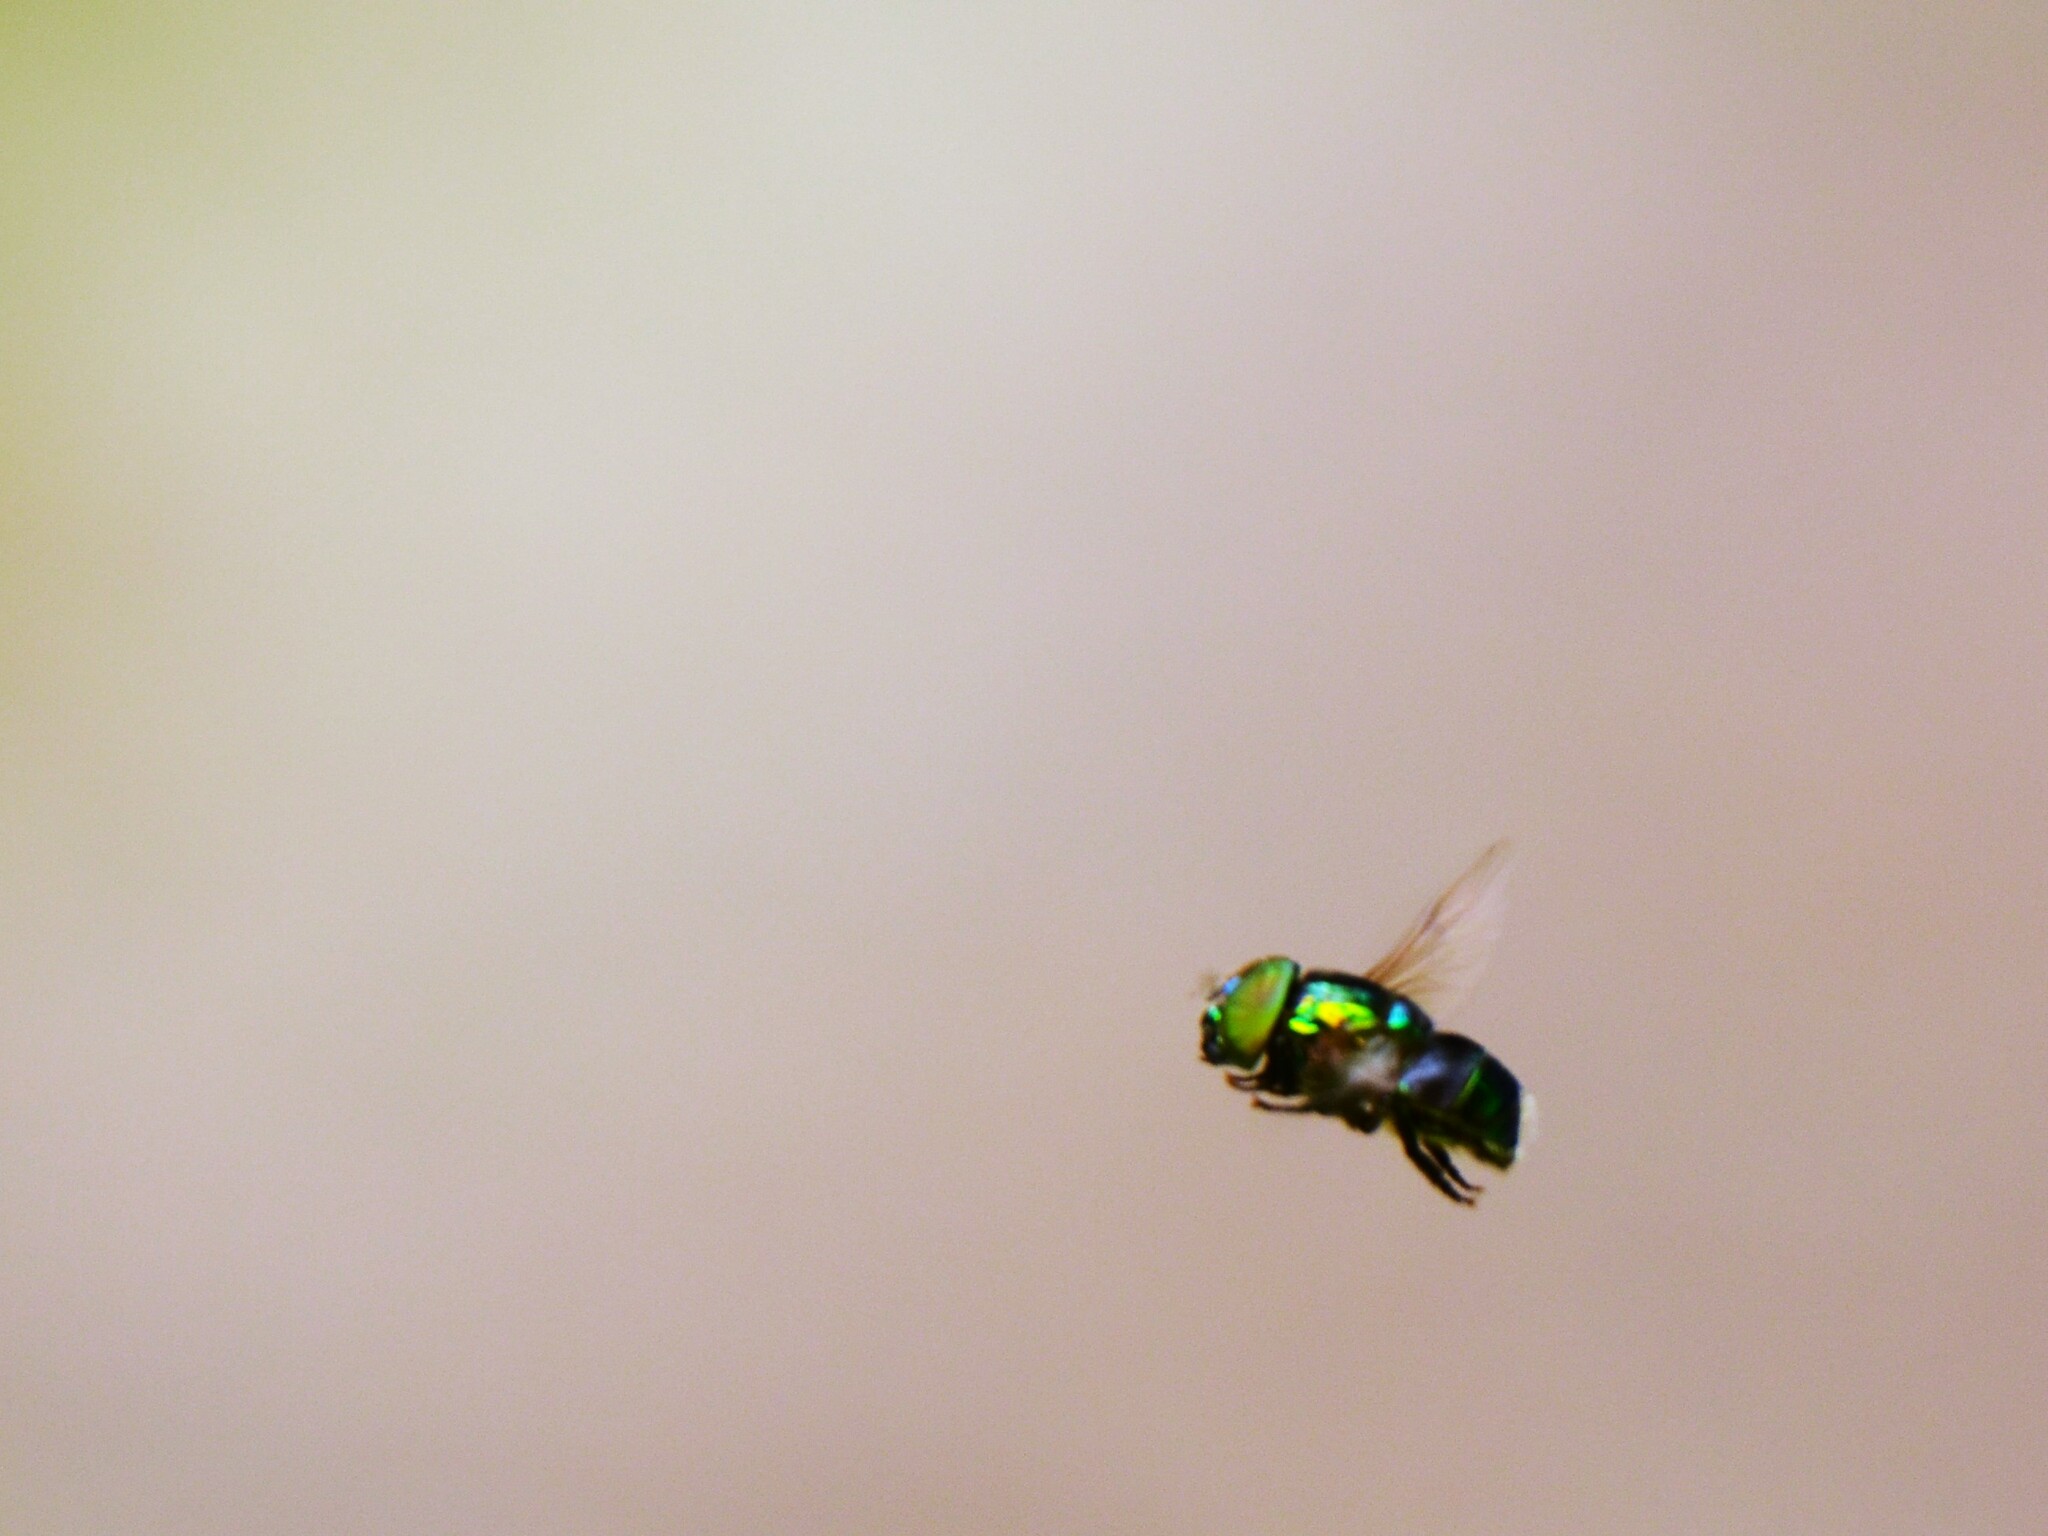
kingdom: Animalia
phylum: Arthropoda
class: Insecta
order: Diptera
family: Syrphidae
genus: Ornidia
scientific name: Ornidia obesa
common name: Syrphid fly
